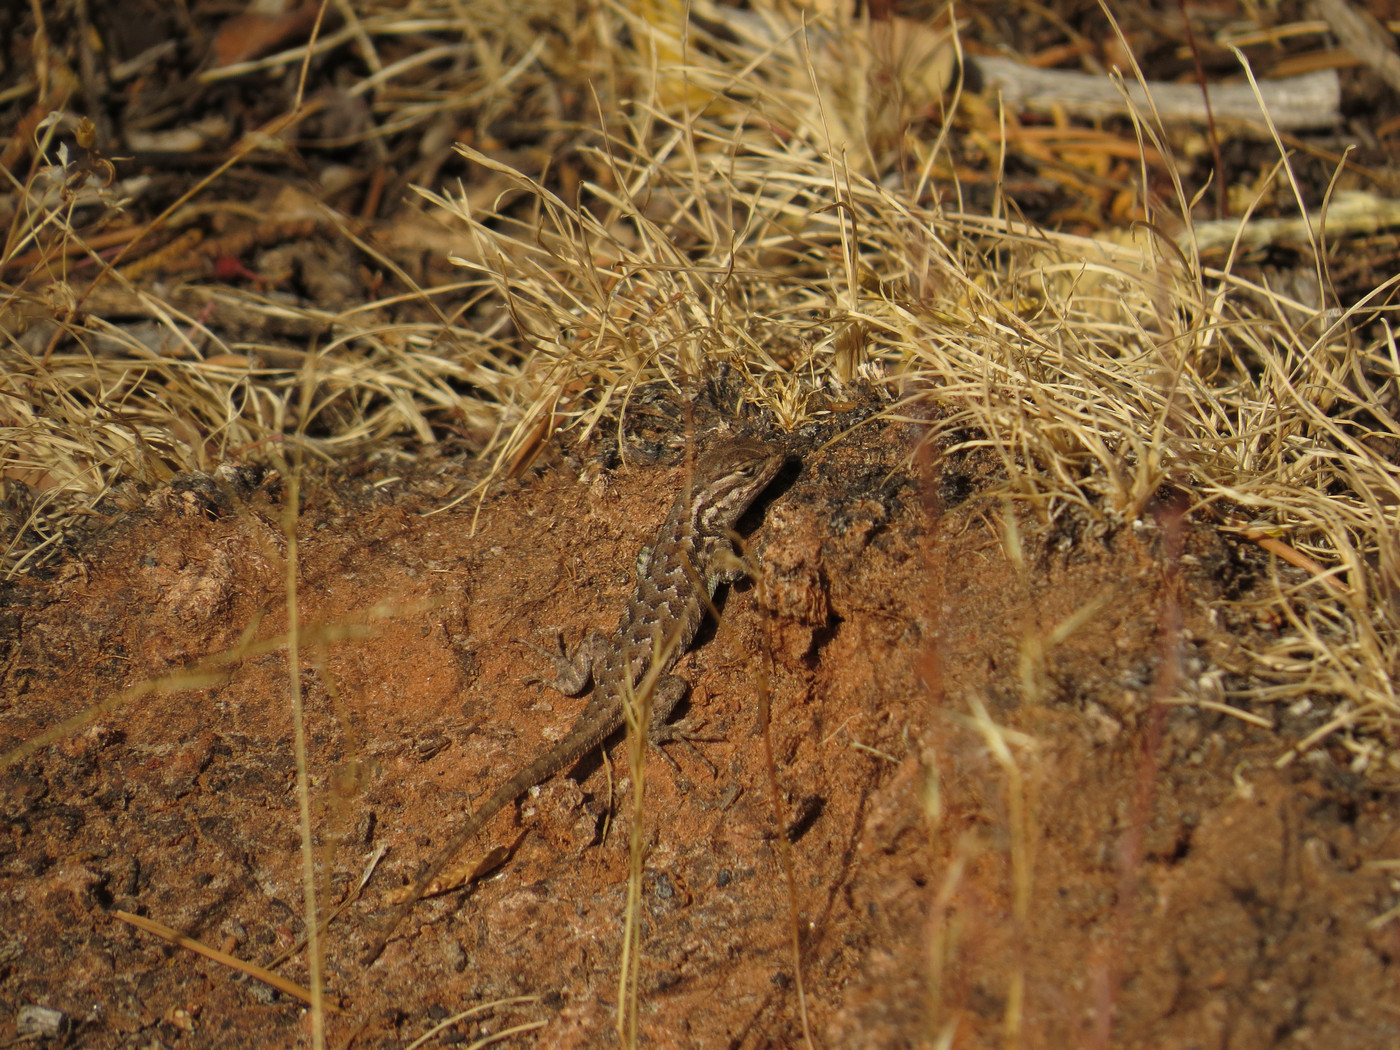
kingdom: Animalia
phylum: Chordata
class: Squamata
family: Phrynosomatidae
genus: Sceloporus
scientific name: Sceloporus graciosus
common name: Sagebrush lizard
